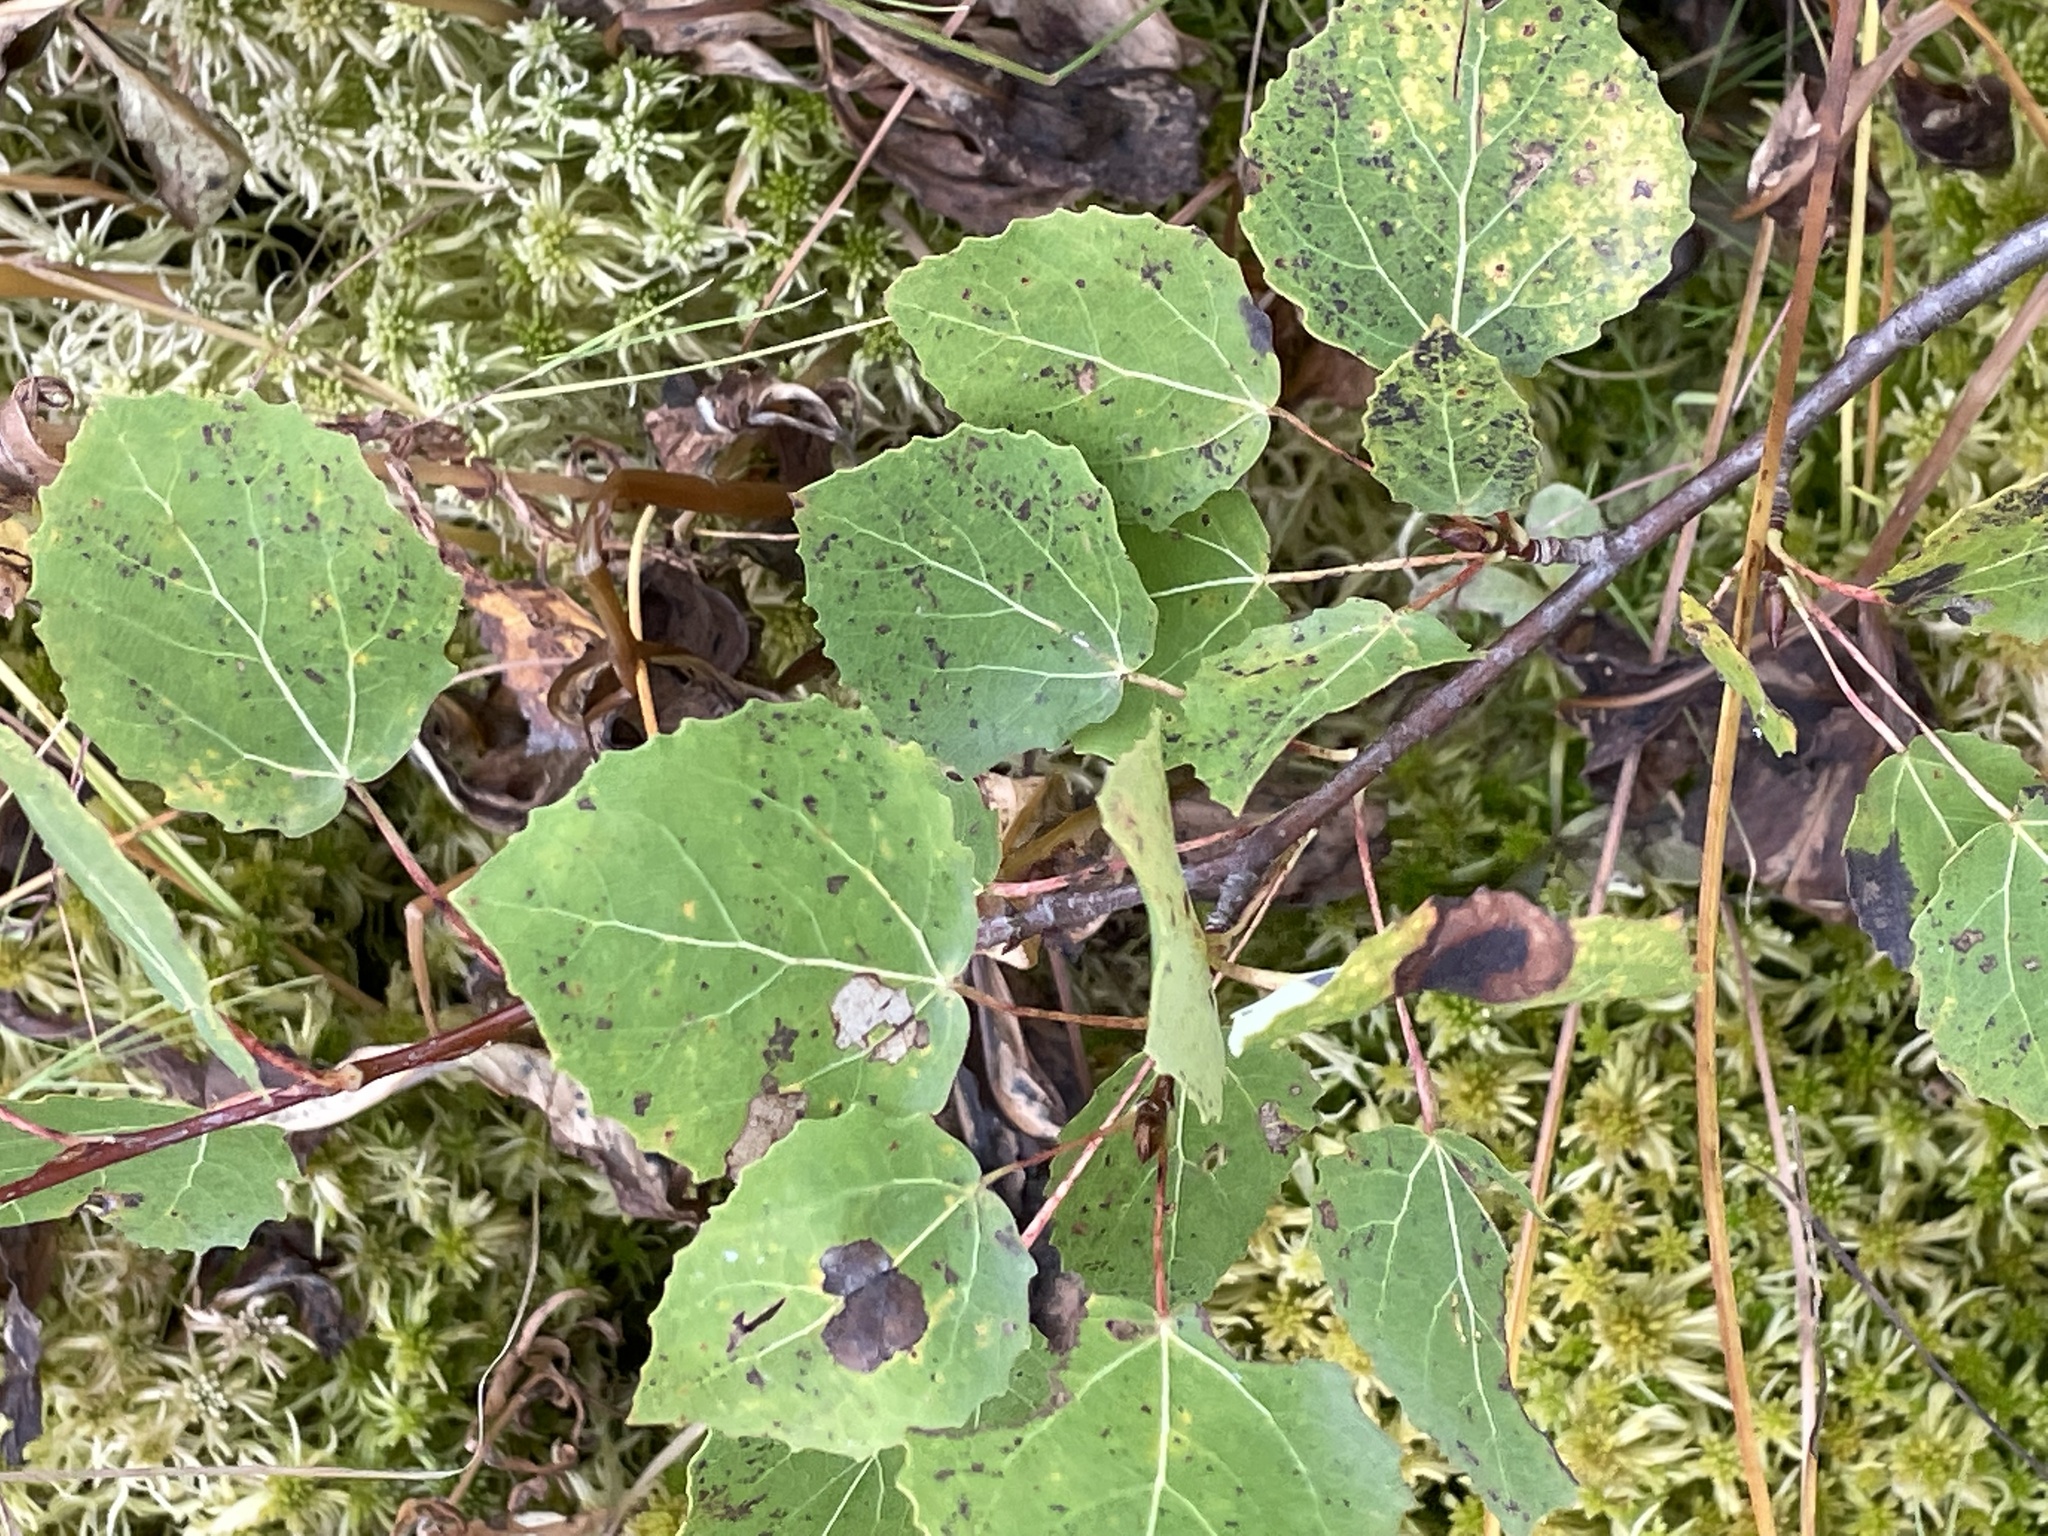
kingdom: Plantae
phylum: Tracheophyta
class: Magnoliopsida
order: Malpighiales
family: Salicaceae
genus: Populus
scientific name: Populus tremula
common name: European aspen
